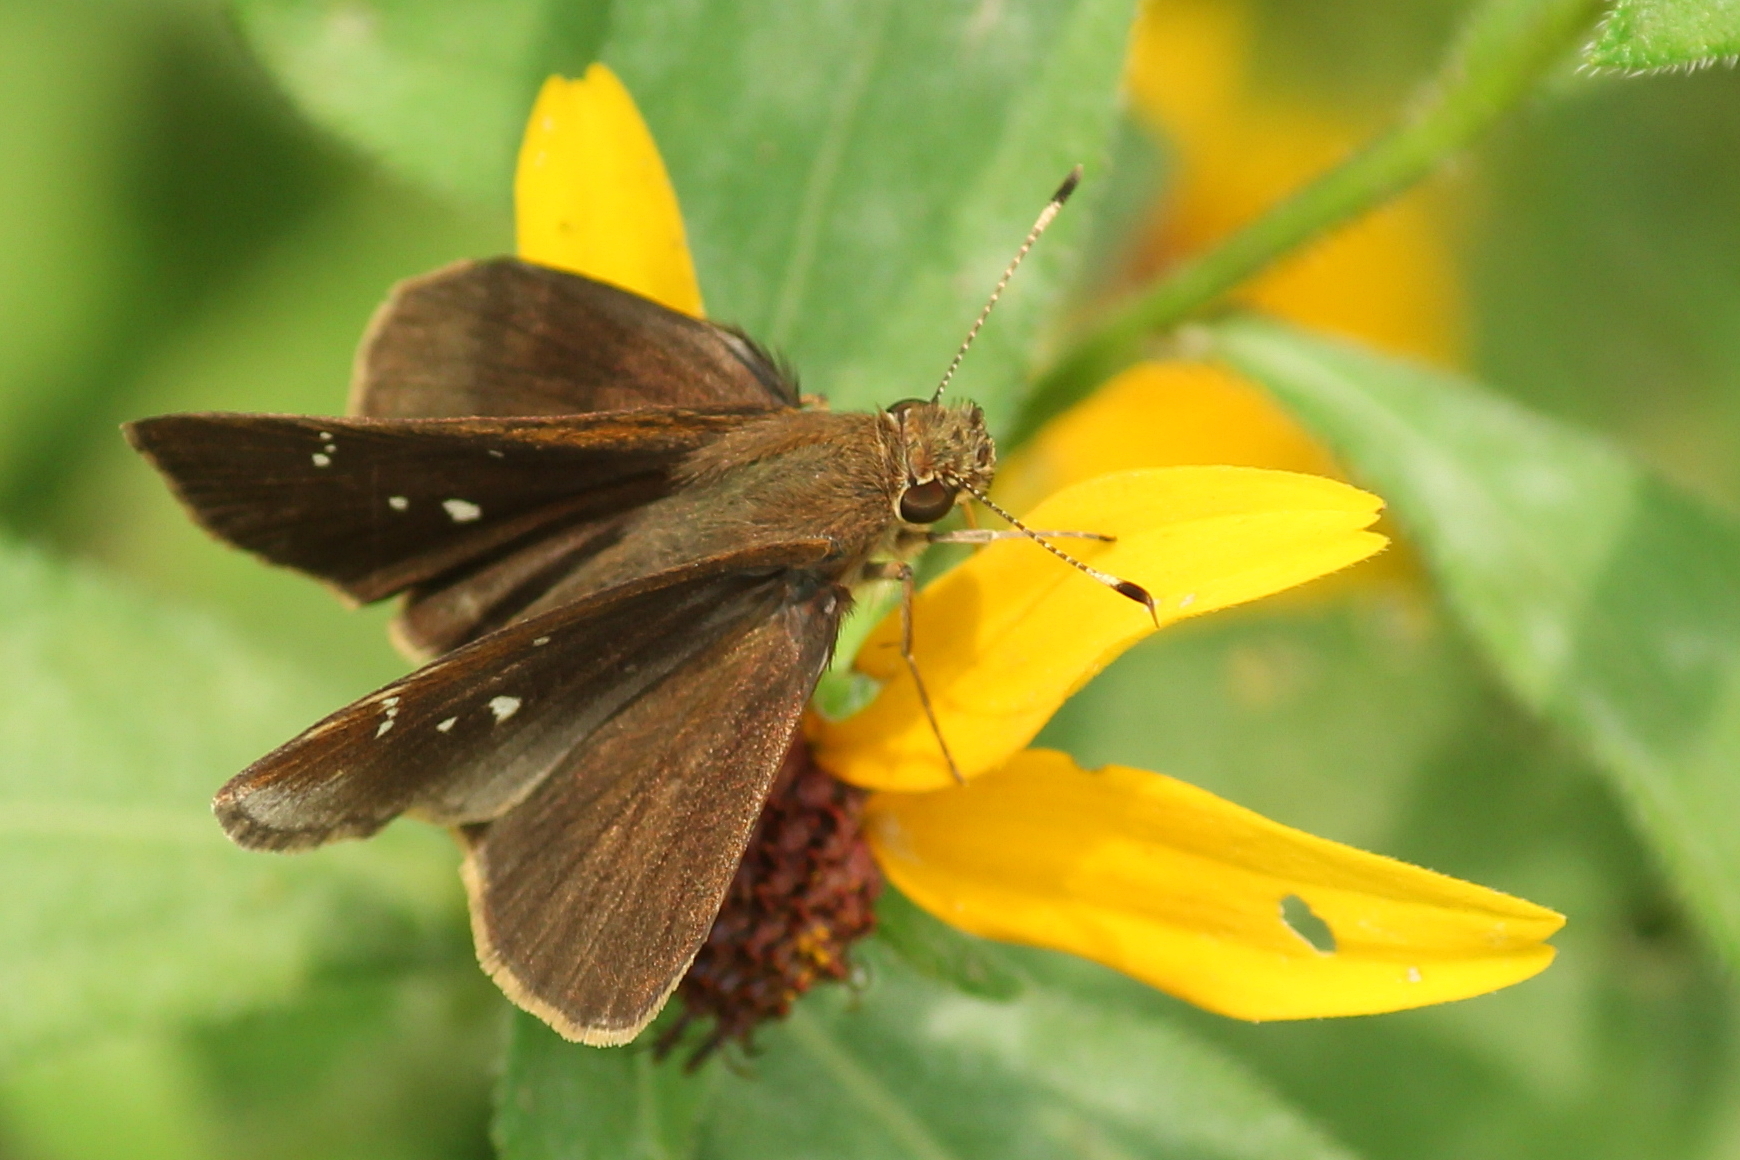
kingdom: Animalia
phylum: Arthropoda
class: Insecta
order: Lepidoptera
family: Hesperiidae
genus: Lerema
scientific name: Lerema accius
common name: Clouded skipper
